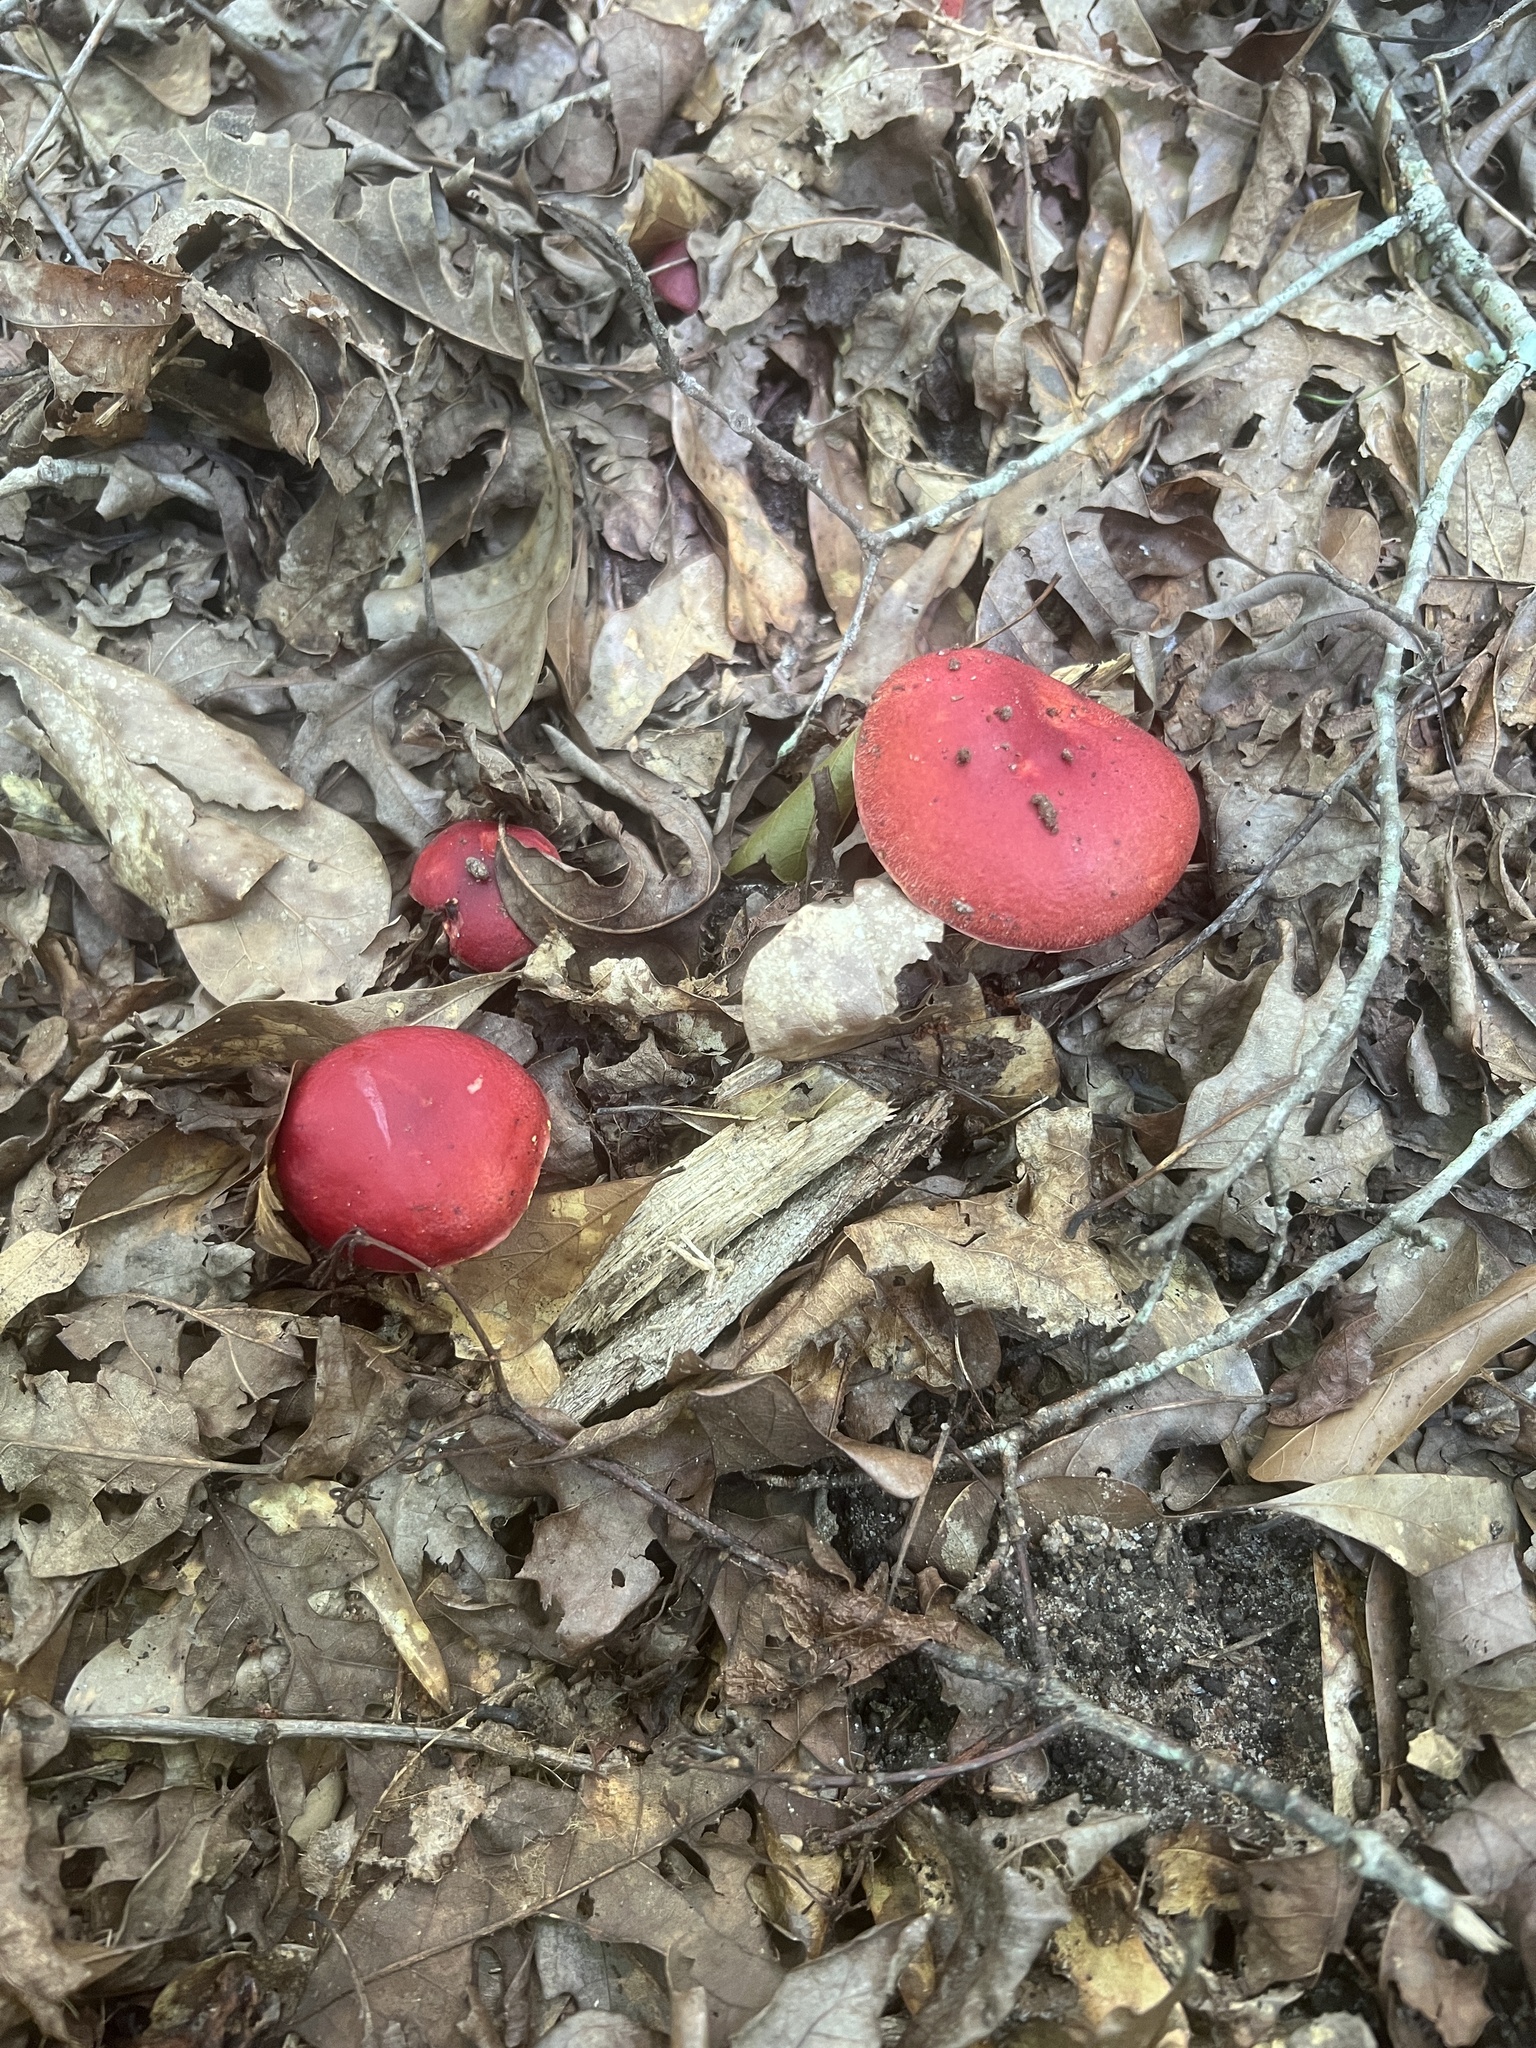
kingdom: Fungi
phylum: Basidiomycota
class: Agaricomycetes
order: Boletales
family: Boletaceae
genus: Butyriboletus
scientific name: Butyriboletus frostii
